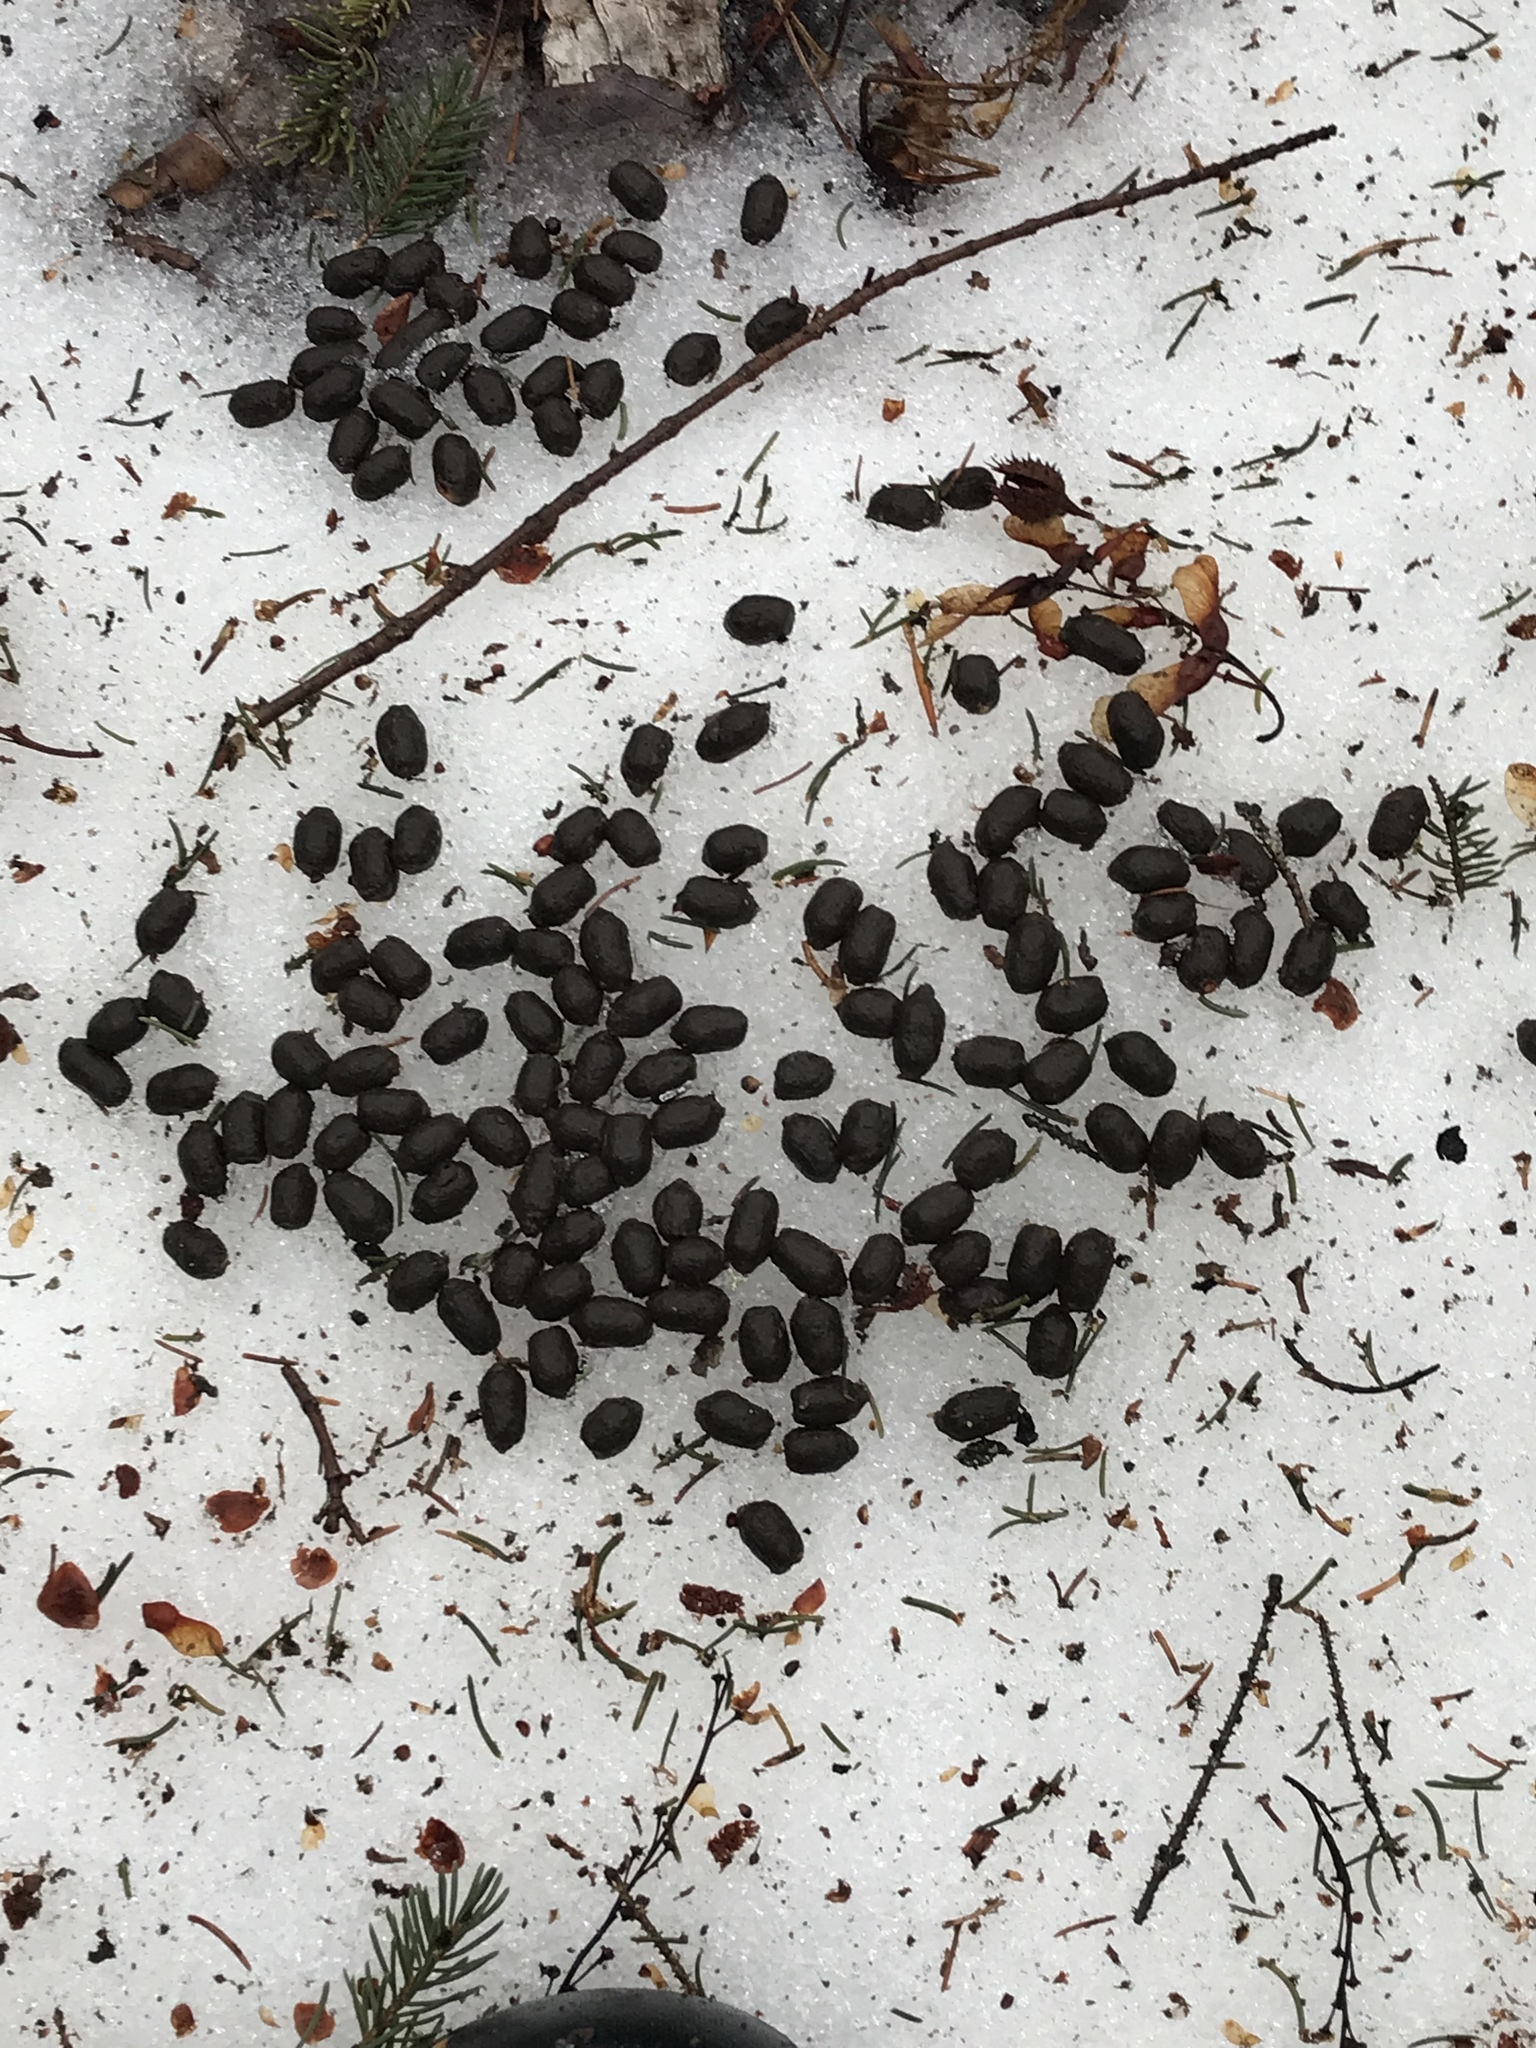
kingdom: Animalia
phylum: Chordata
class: Mammalia
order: Artiodactyla
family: Cervidae
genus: Odocoileus
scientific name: Odocoileus virginianus
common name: White-tailed deer
